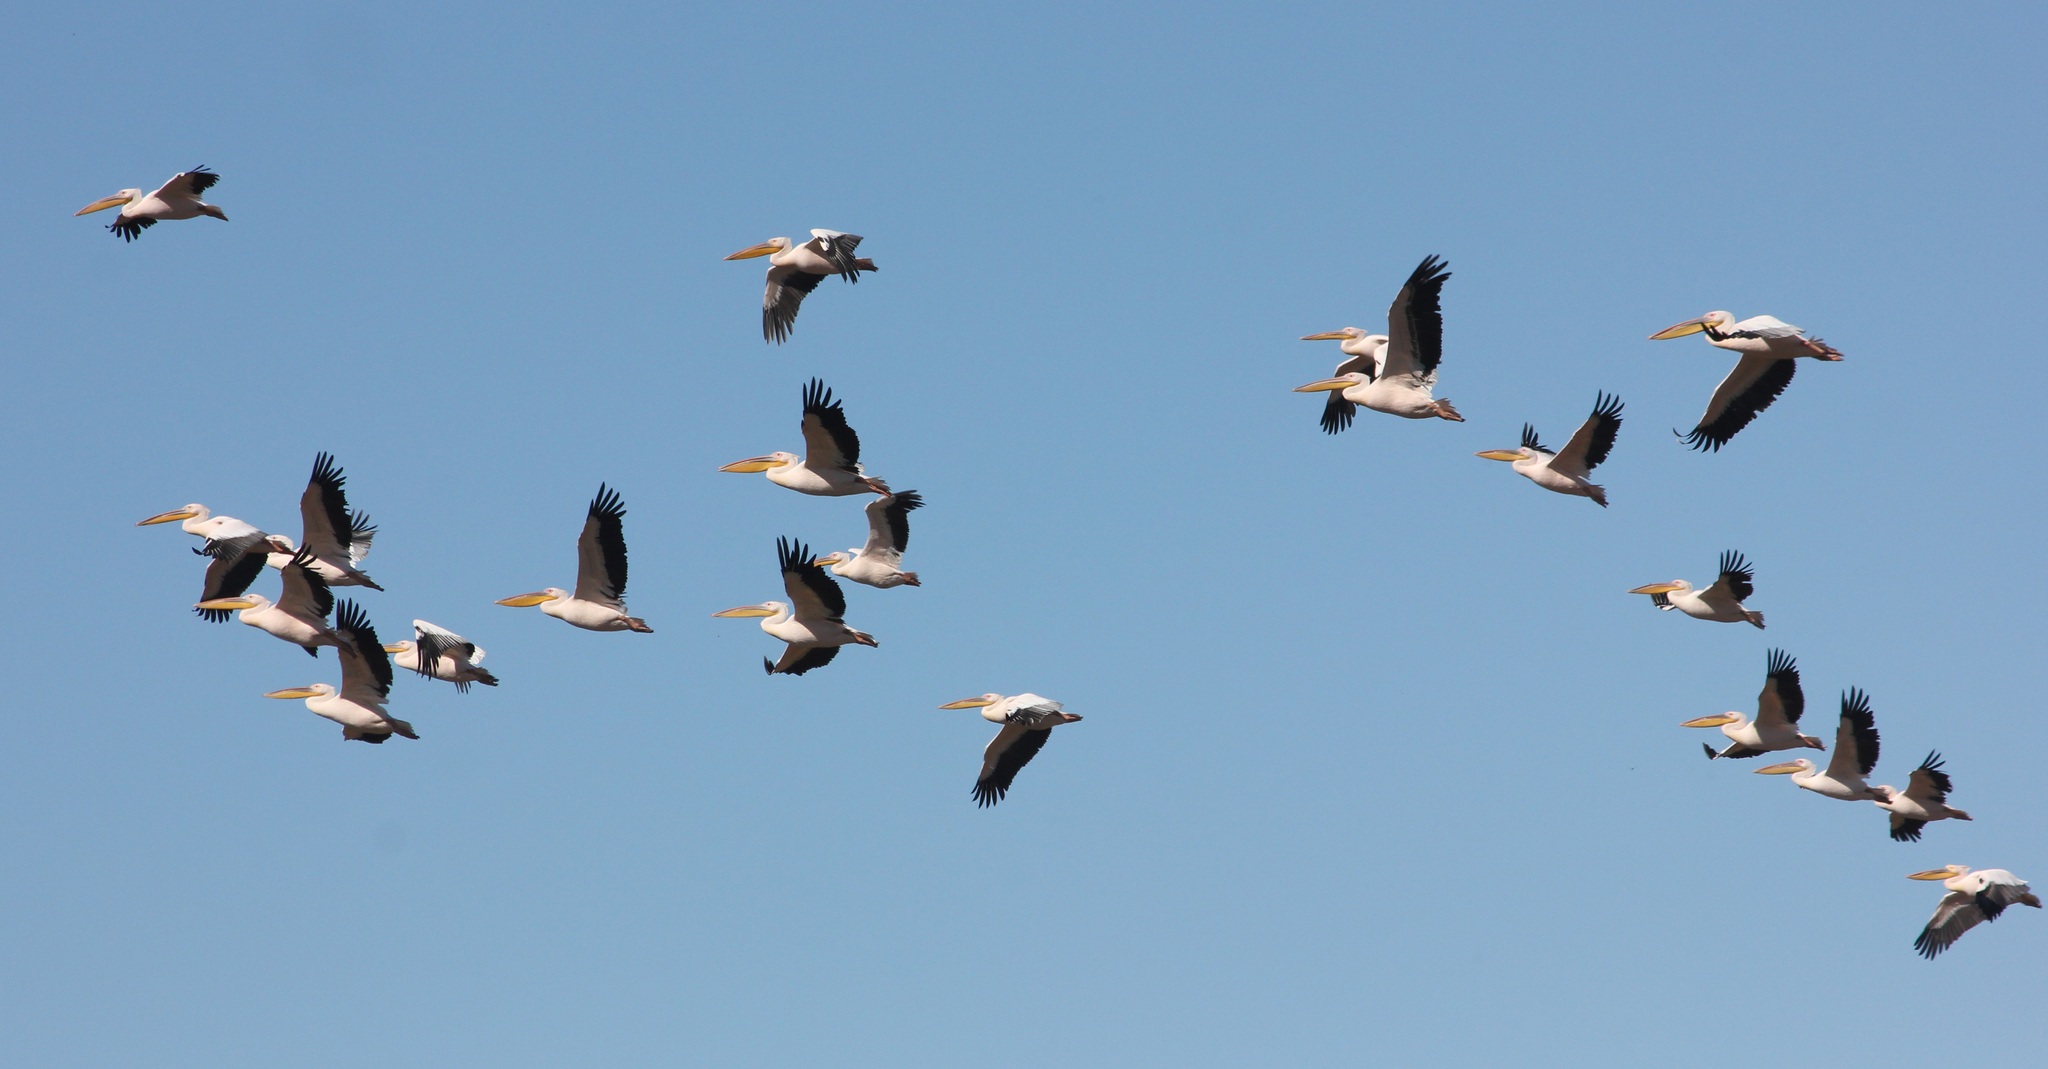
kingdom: Animalia
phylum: Chordata
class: Aves
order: Pelecaniformes
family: Pelecanidae
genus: Pelecanus
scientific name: Pelecanus onocrotalus
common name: Great white pelican
